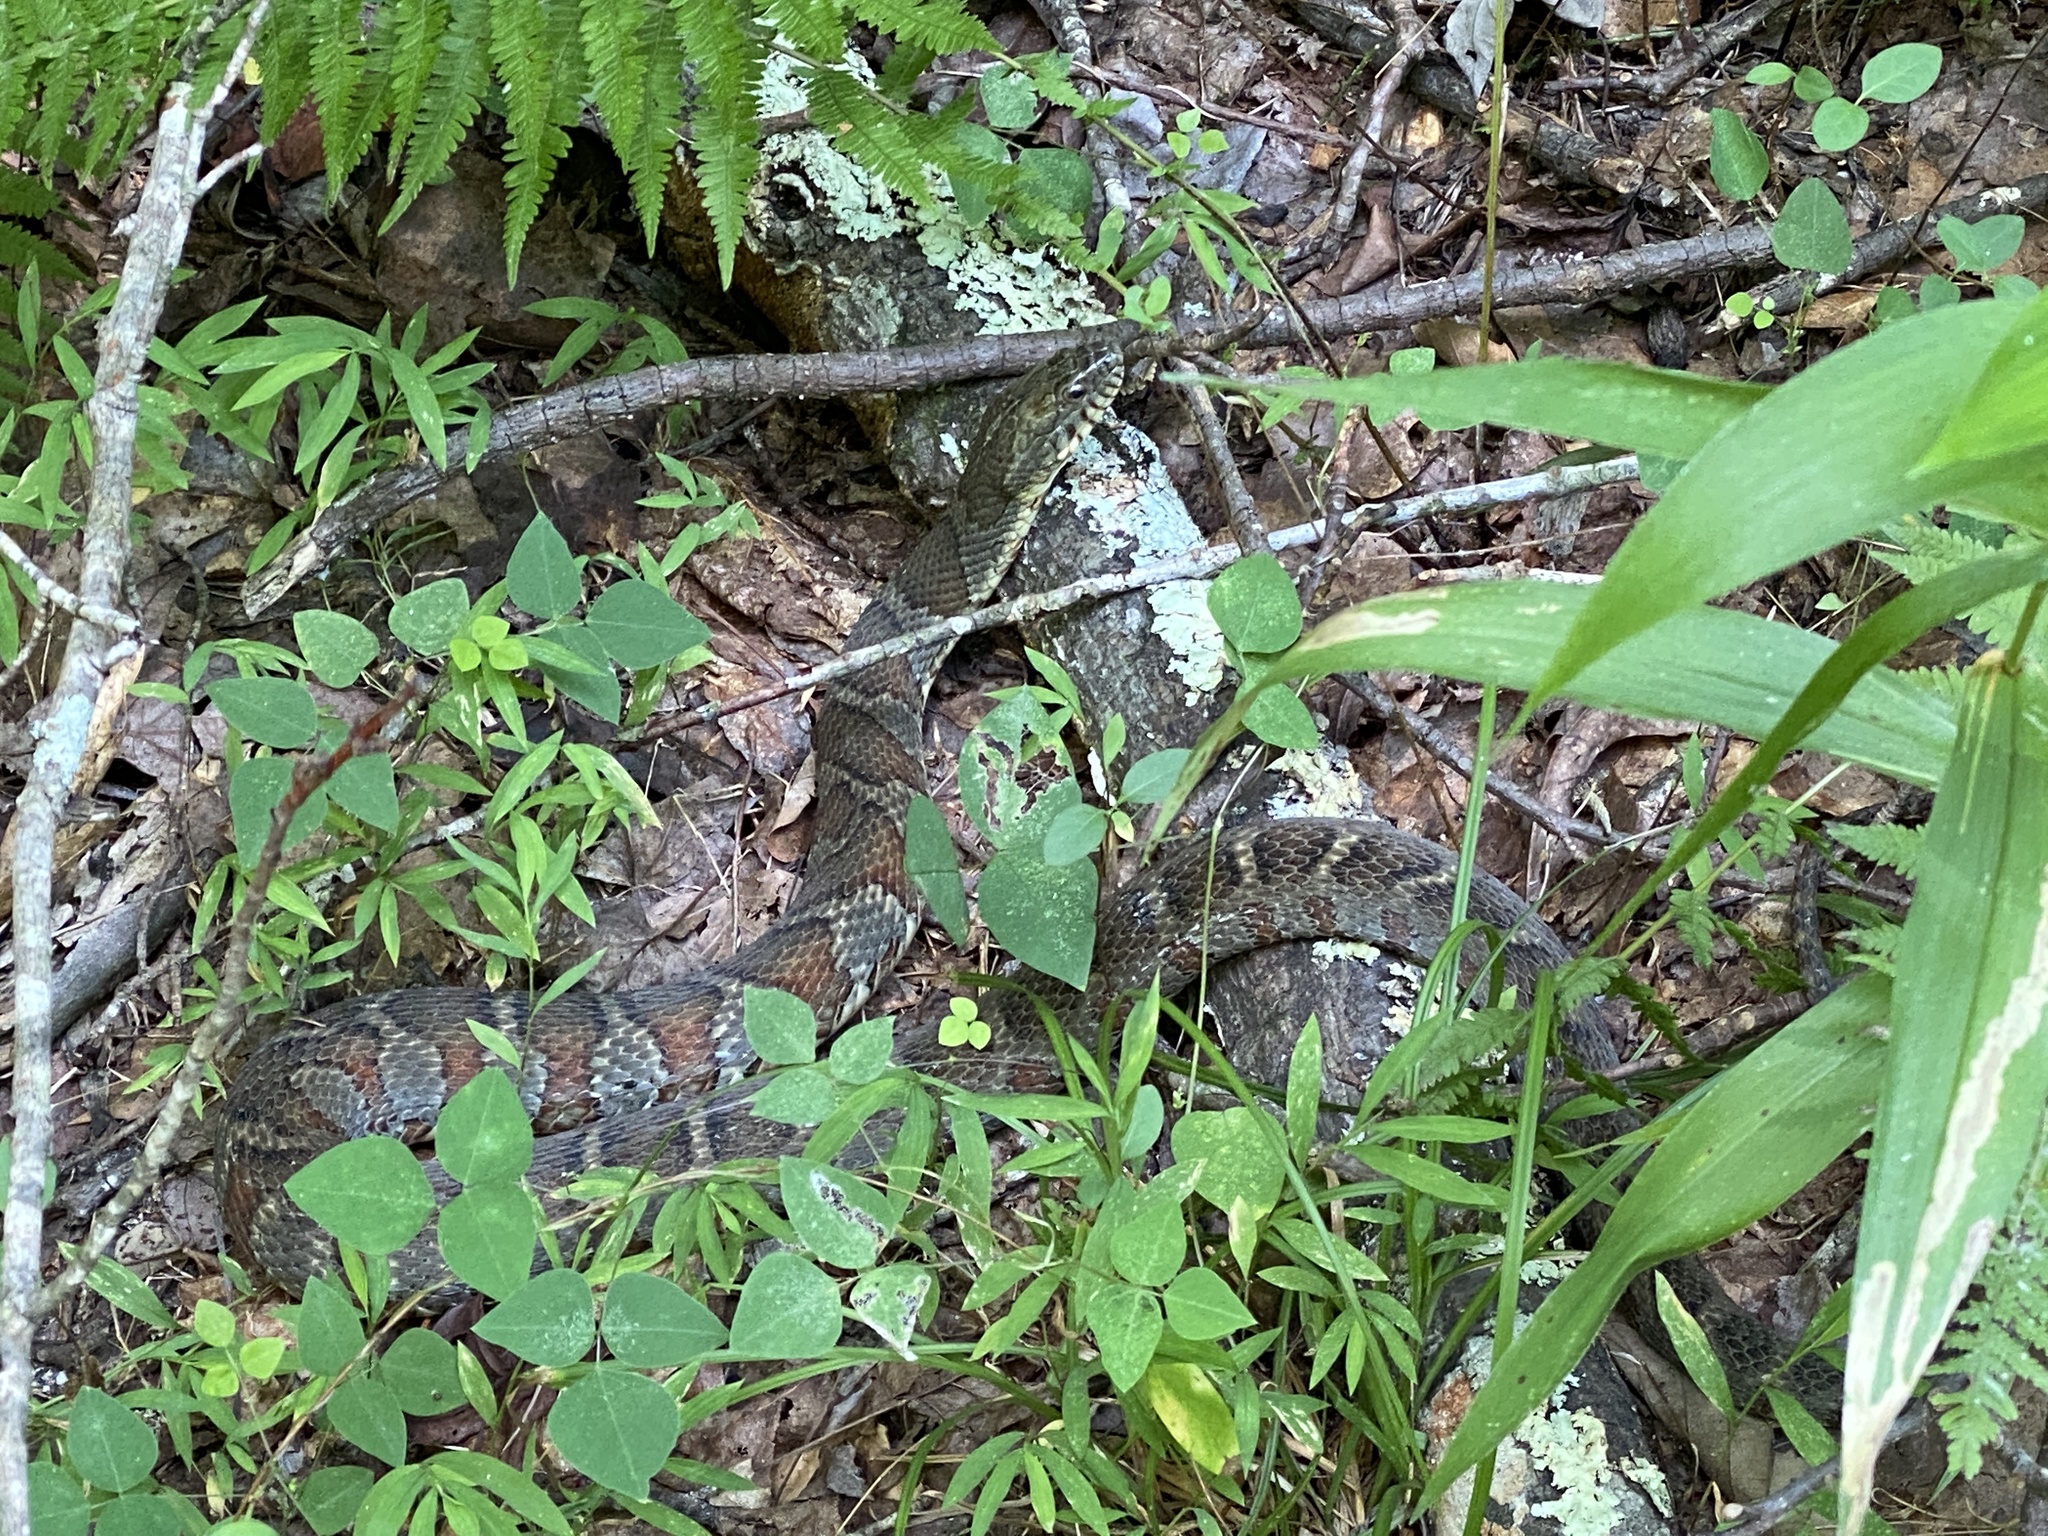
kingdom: Animalia
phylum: Chordata
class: Squamata
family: Colubridae
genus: Nerodia
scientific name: Nerodia sipedon
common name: Northern water snake
